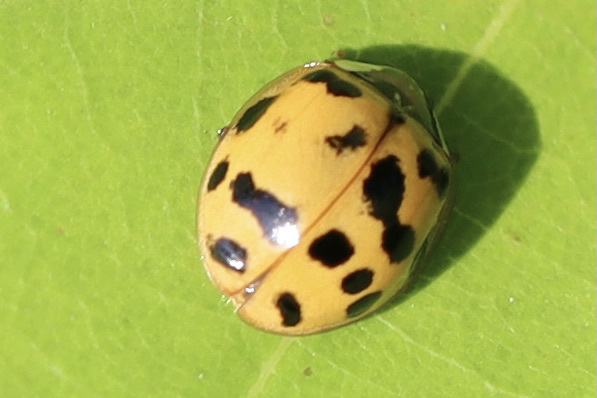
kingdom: Animalia
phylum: Arthropoda
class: Insecta
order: Coleoptera
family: Coccinellidae
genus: Harmonia
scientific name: Harmonia axyridis
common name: Harlequin ladybird
